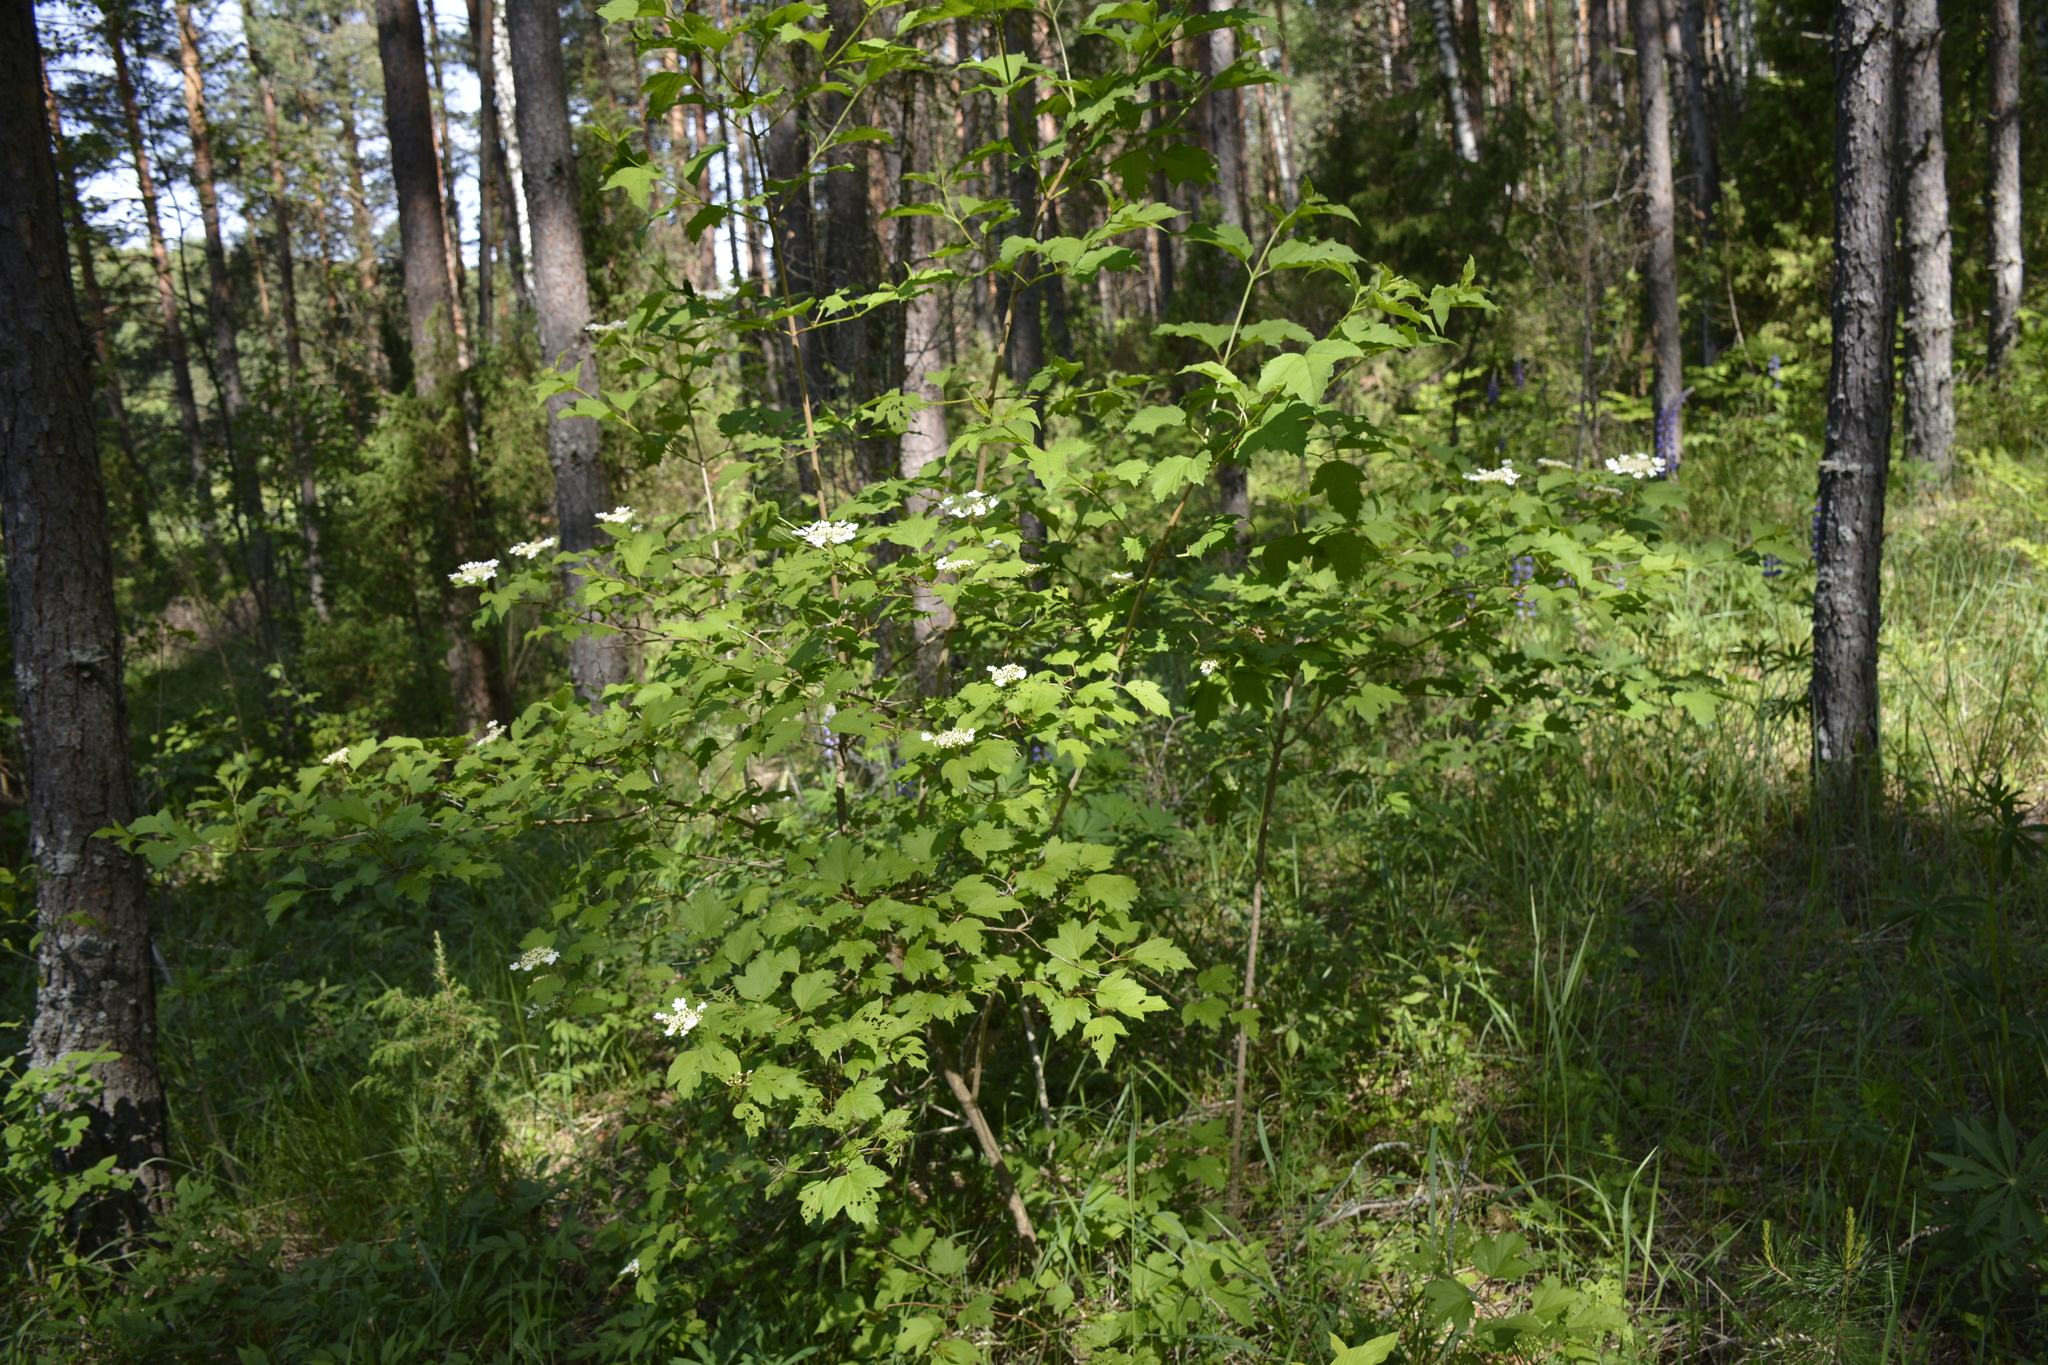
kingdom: Plantae
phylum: Tracheophyta
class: Magnoliopsida
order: Dipsacales
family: Viburnaceae
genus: Viburnum
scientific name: Viburnum opulus
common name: Guelder-rose
